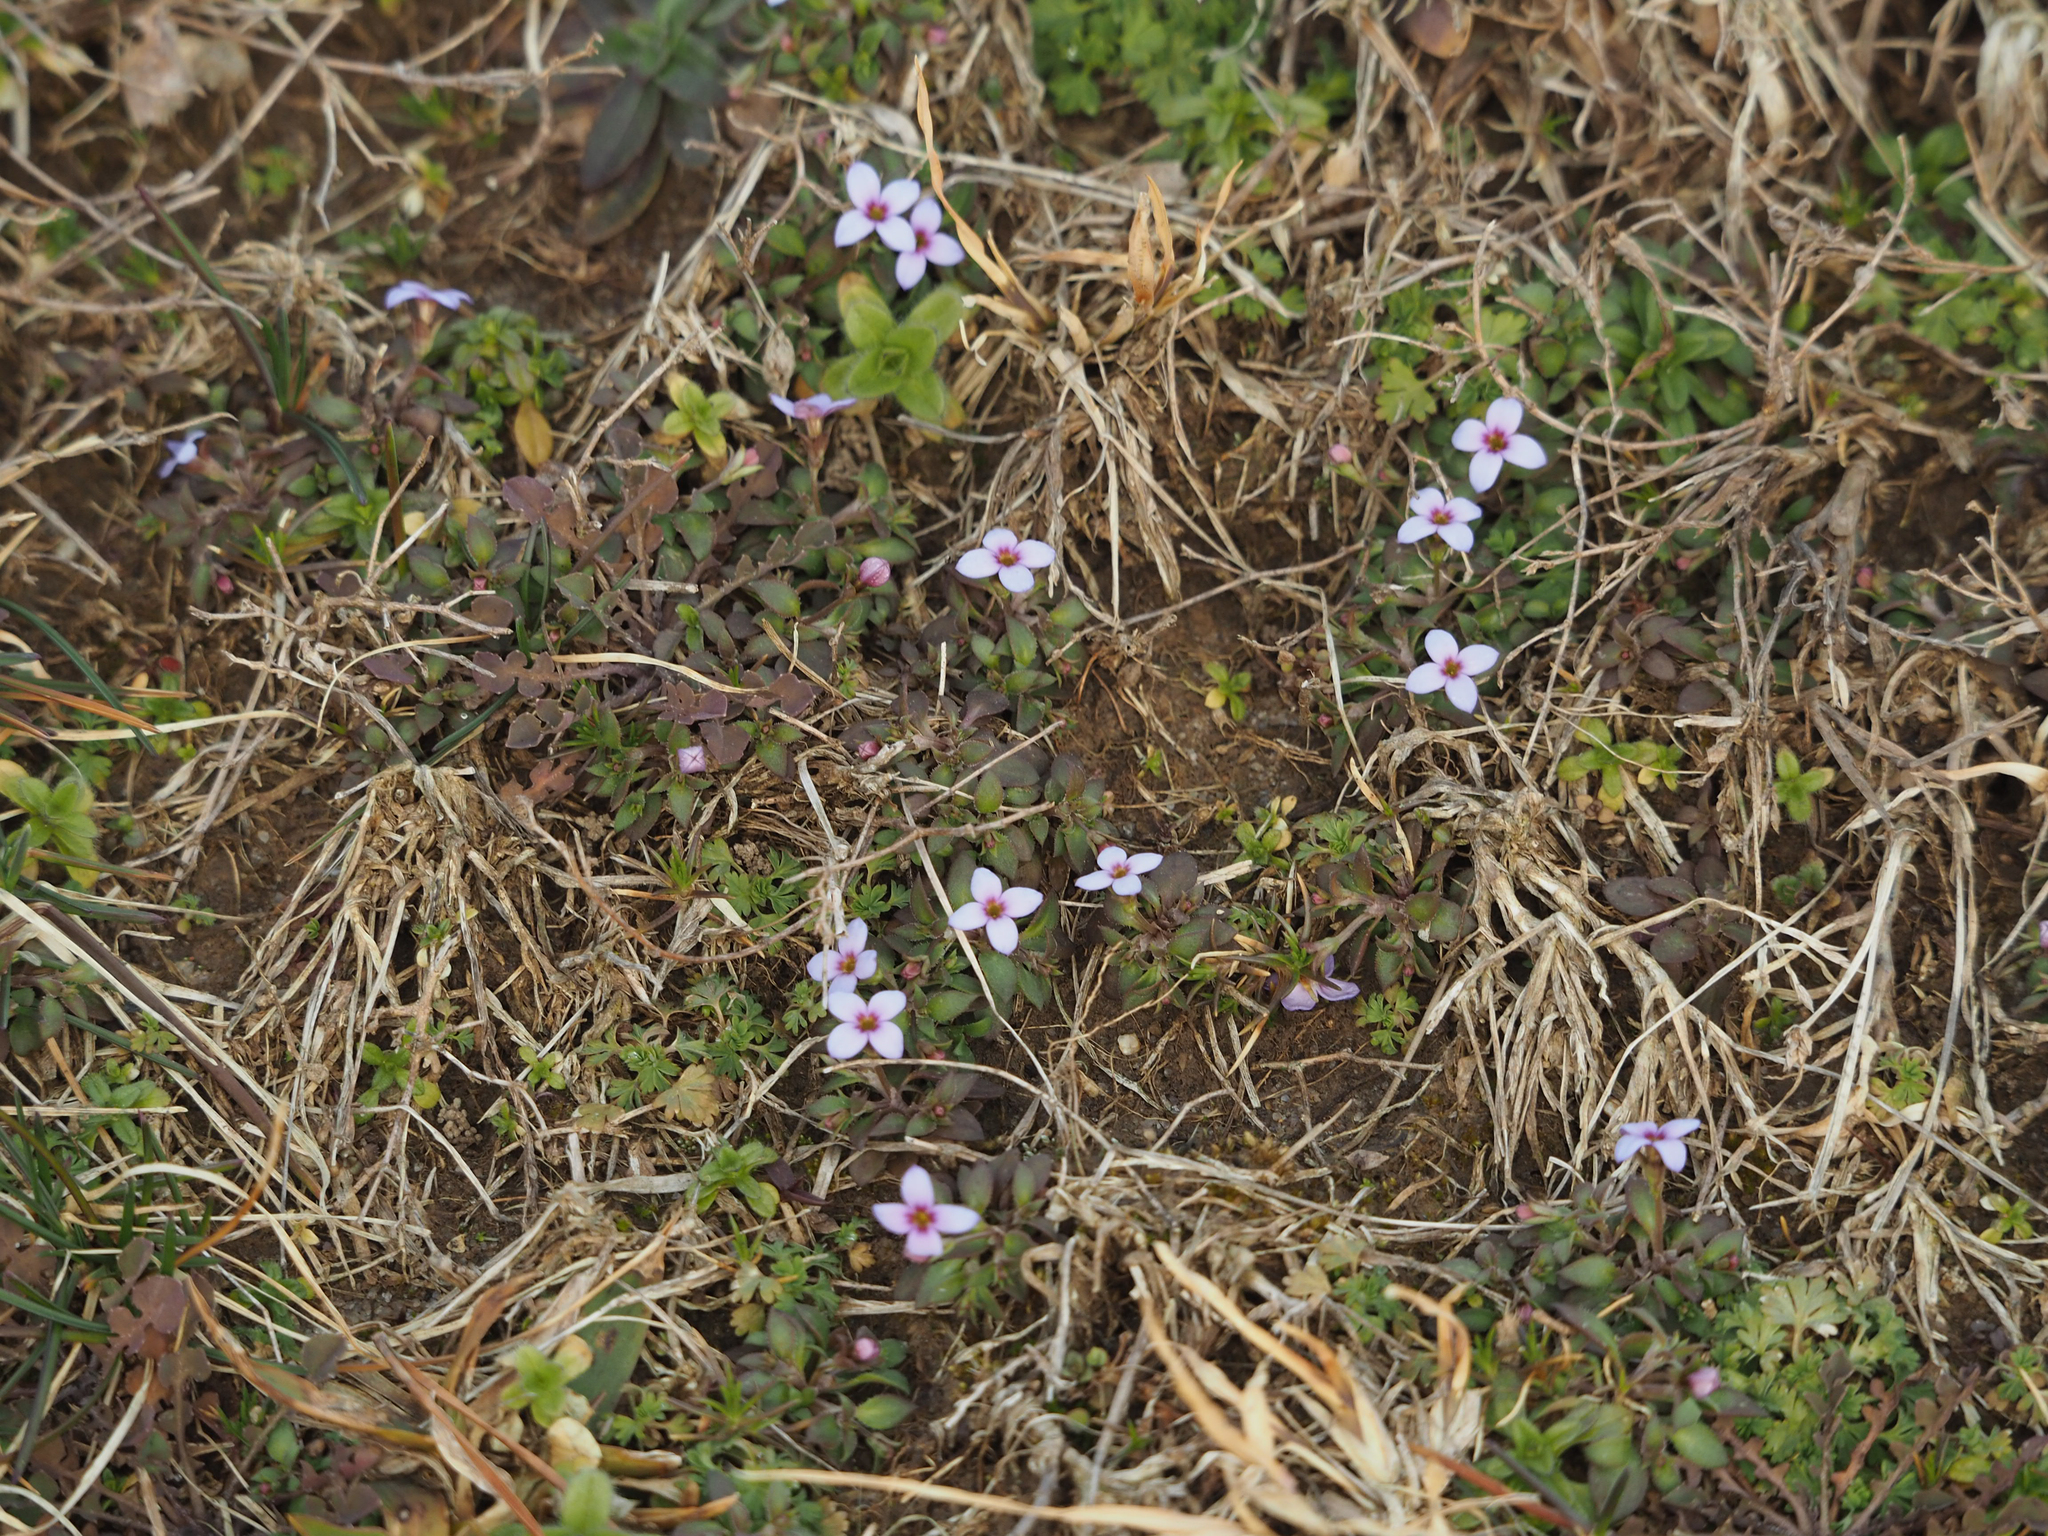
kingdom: Plantae
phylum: Tracheophyta
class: Magnoliopsida
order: Gentianales
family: Rubiaceae
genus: Houstonia
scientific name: Houstonia pusilla
